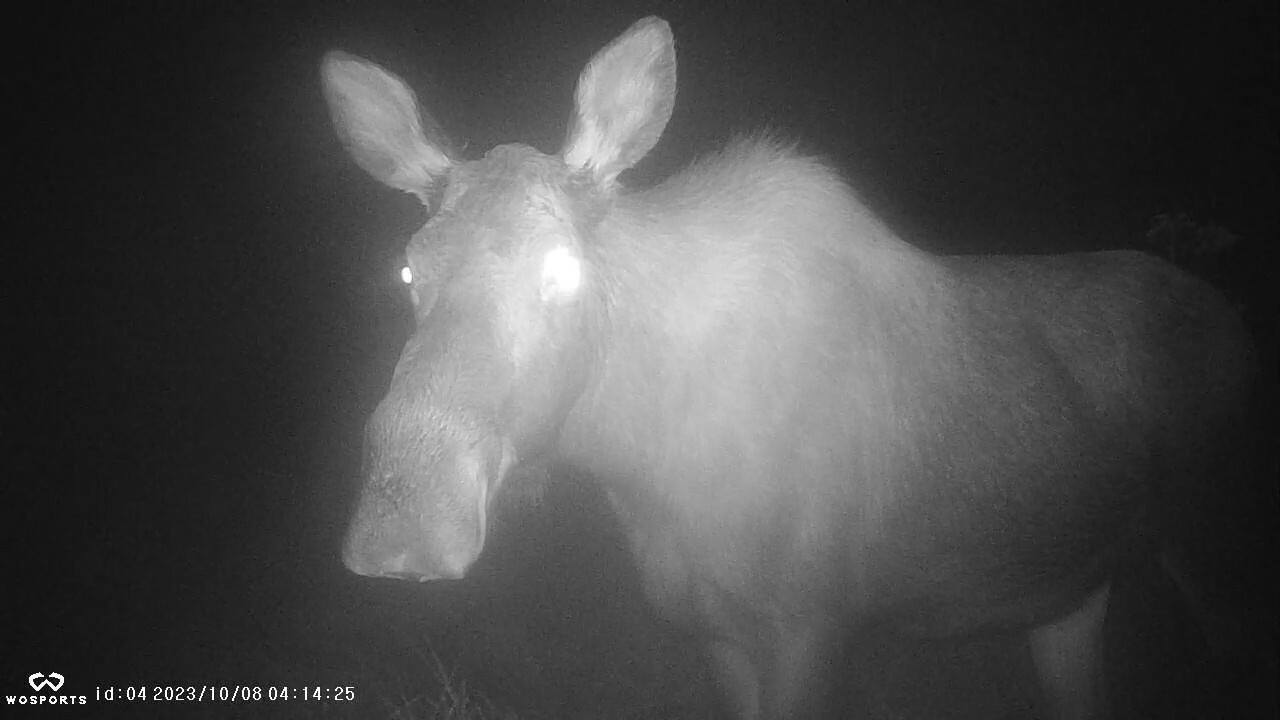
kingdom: Animalia
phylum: Chordata
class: Mammalia
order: Artiodactyla
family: Cervidae
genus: Alces
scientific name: Alces alces
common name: Moose
